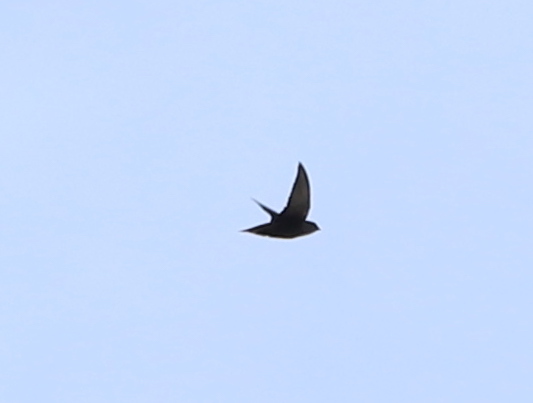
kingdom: Animalia
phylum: Chordata
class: Aves
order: Apodiformes
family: Apodidae
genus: Chaetura
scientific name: Chaetura pelagica
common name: Chimney swift
